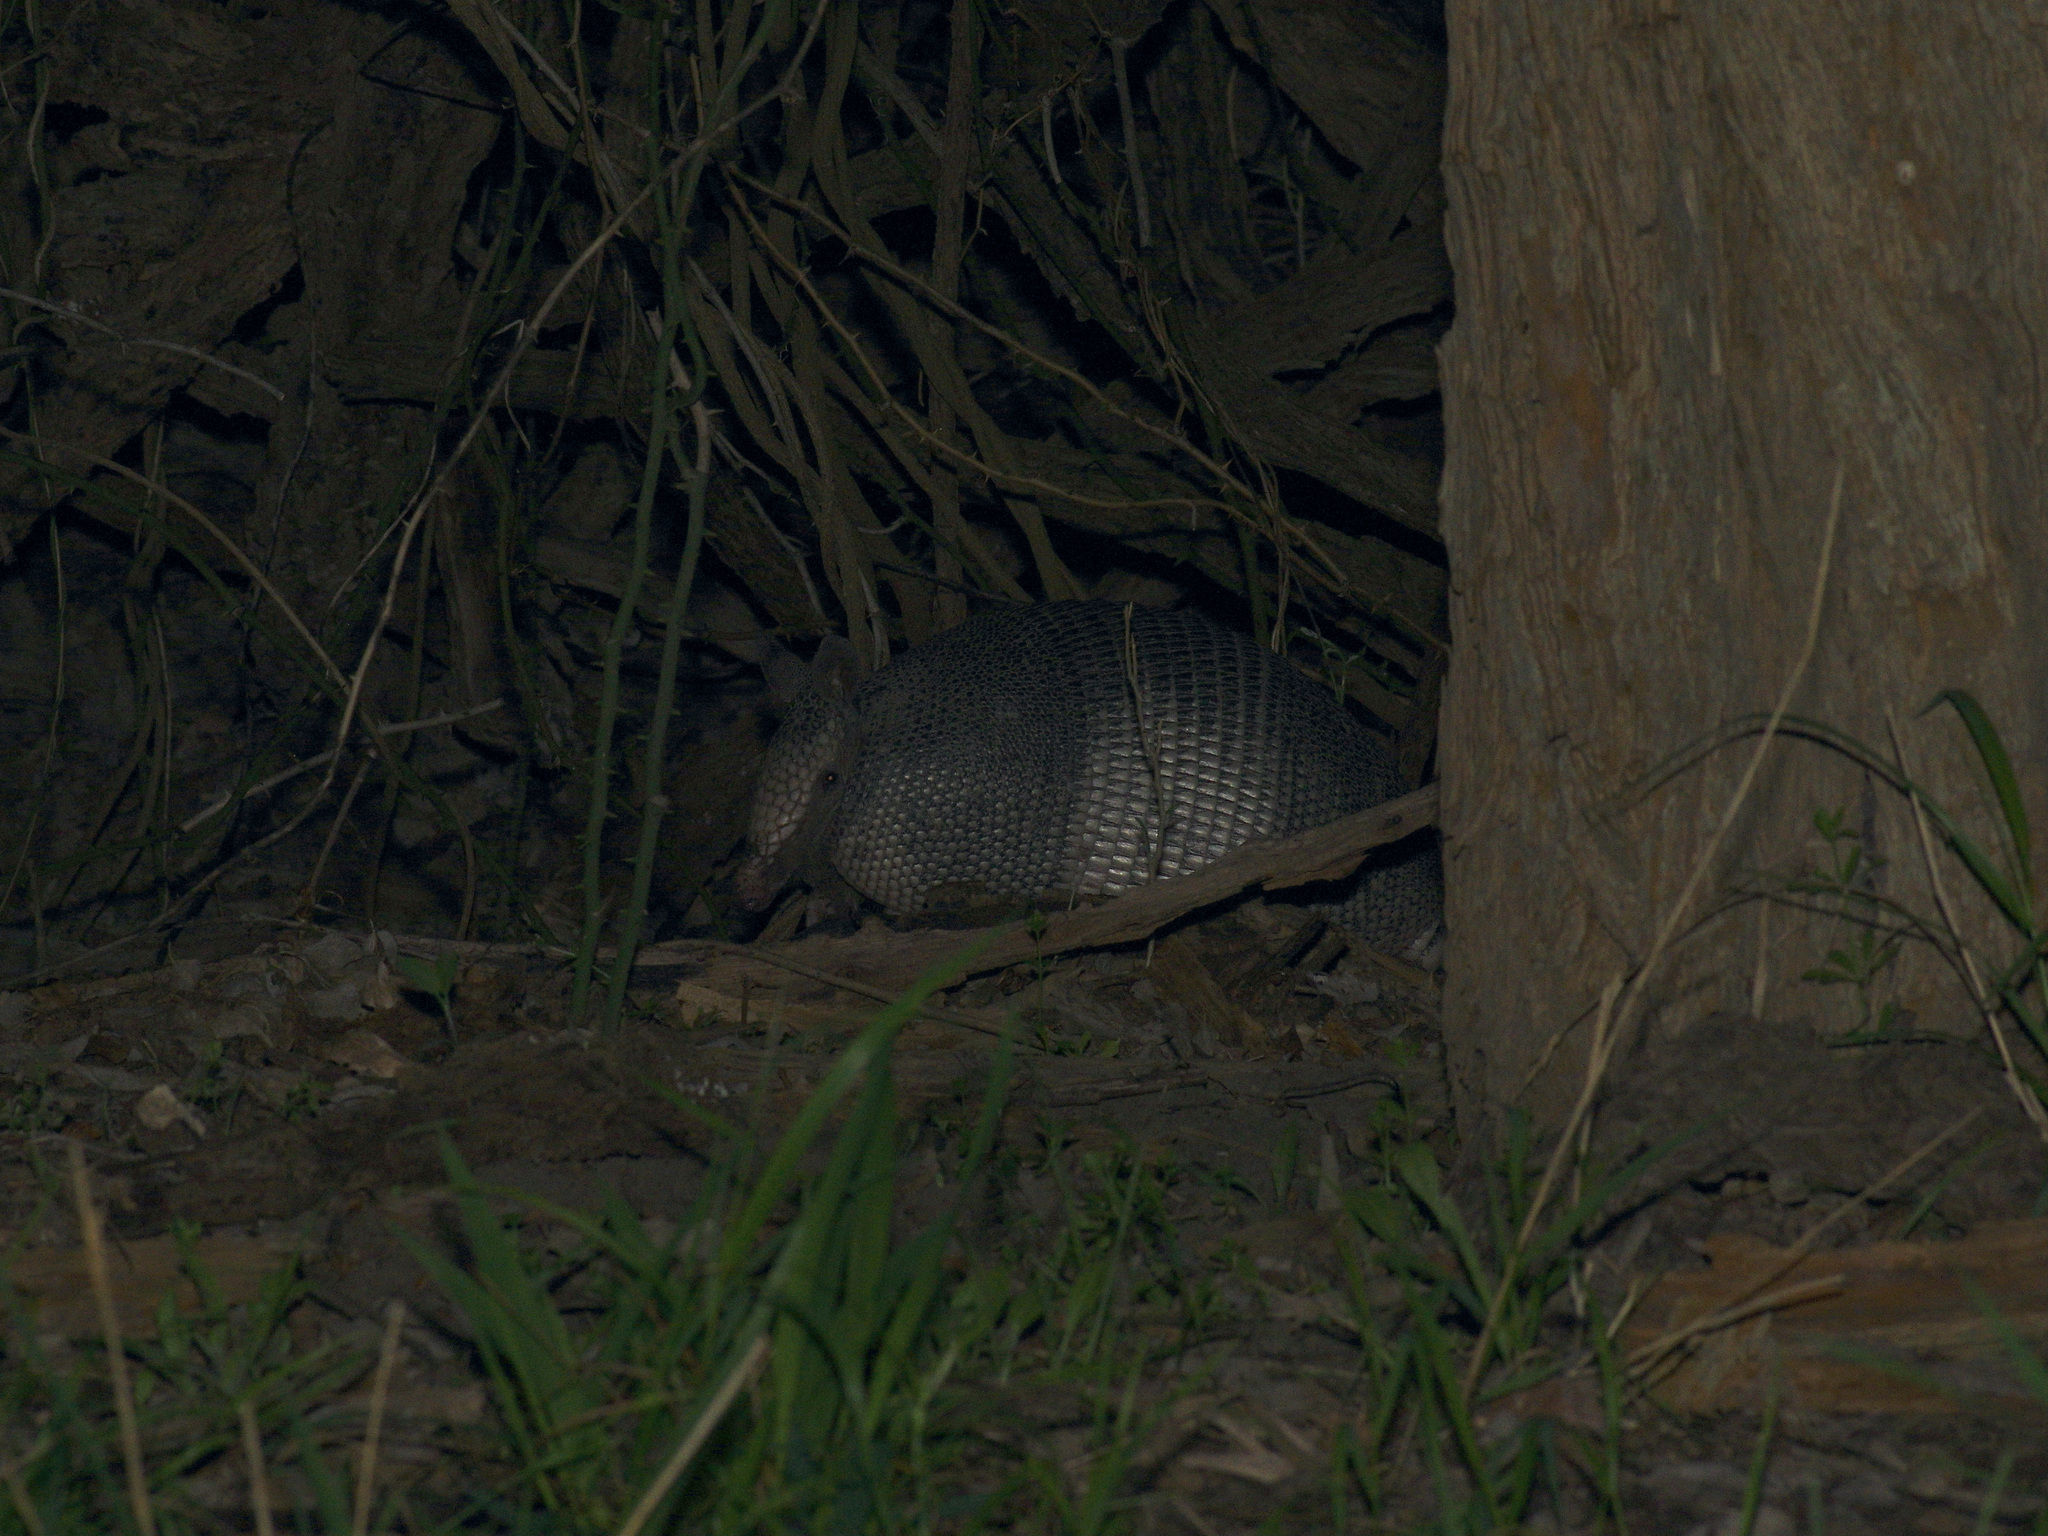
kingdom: Animalia
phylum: Chordata
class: Mammalia
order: Cingulata
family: Dasypodidae
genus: Dasypus
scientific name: Dasypus novemcinctus
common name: Nine-banded armadillo
